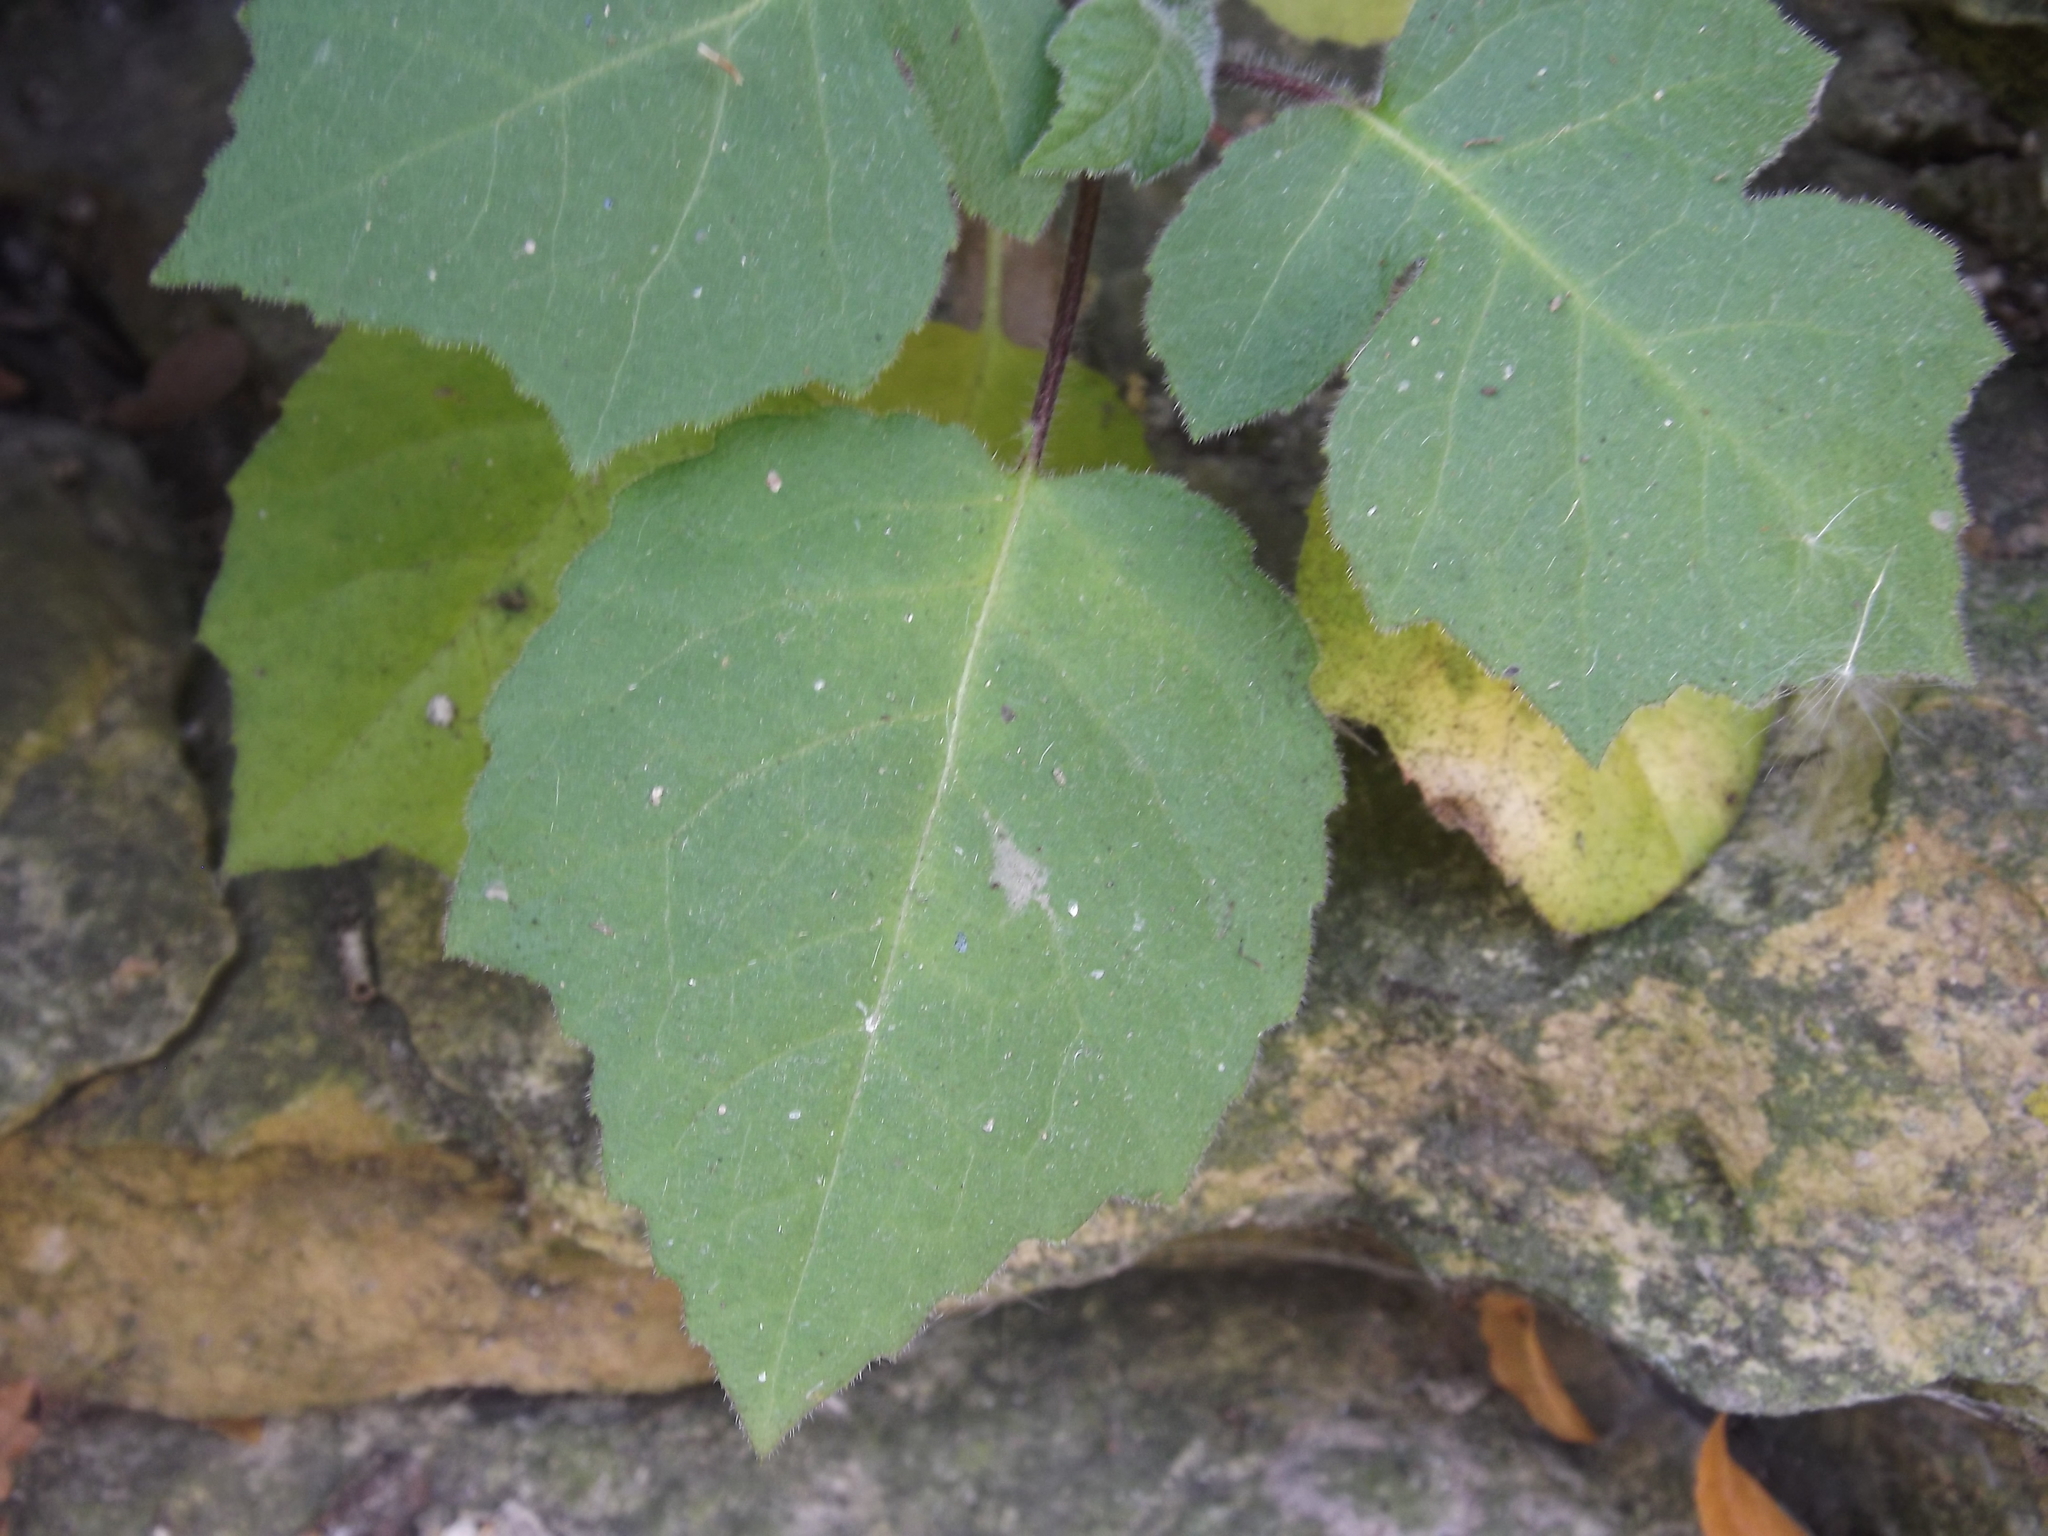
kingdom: Plantae
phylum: Tracheophyta
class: Magnoliopsida
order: Asterales
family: Asteraceae
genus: Polymnia
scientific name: Polymnia canadensis
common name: Pale-flowered leafcup
